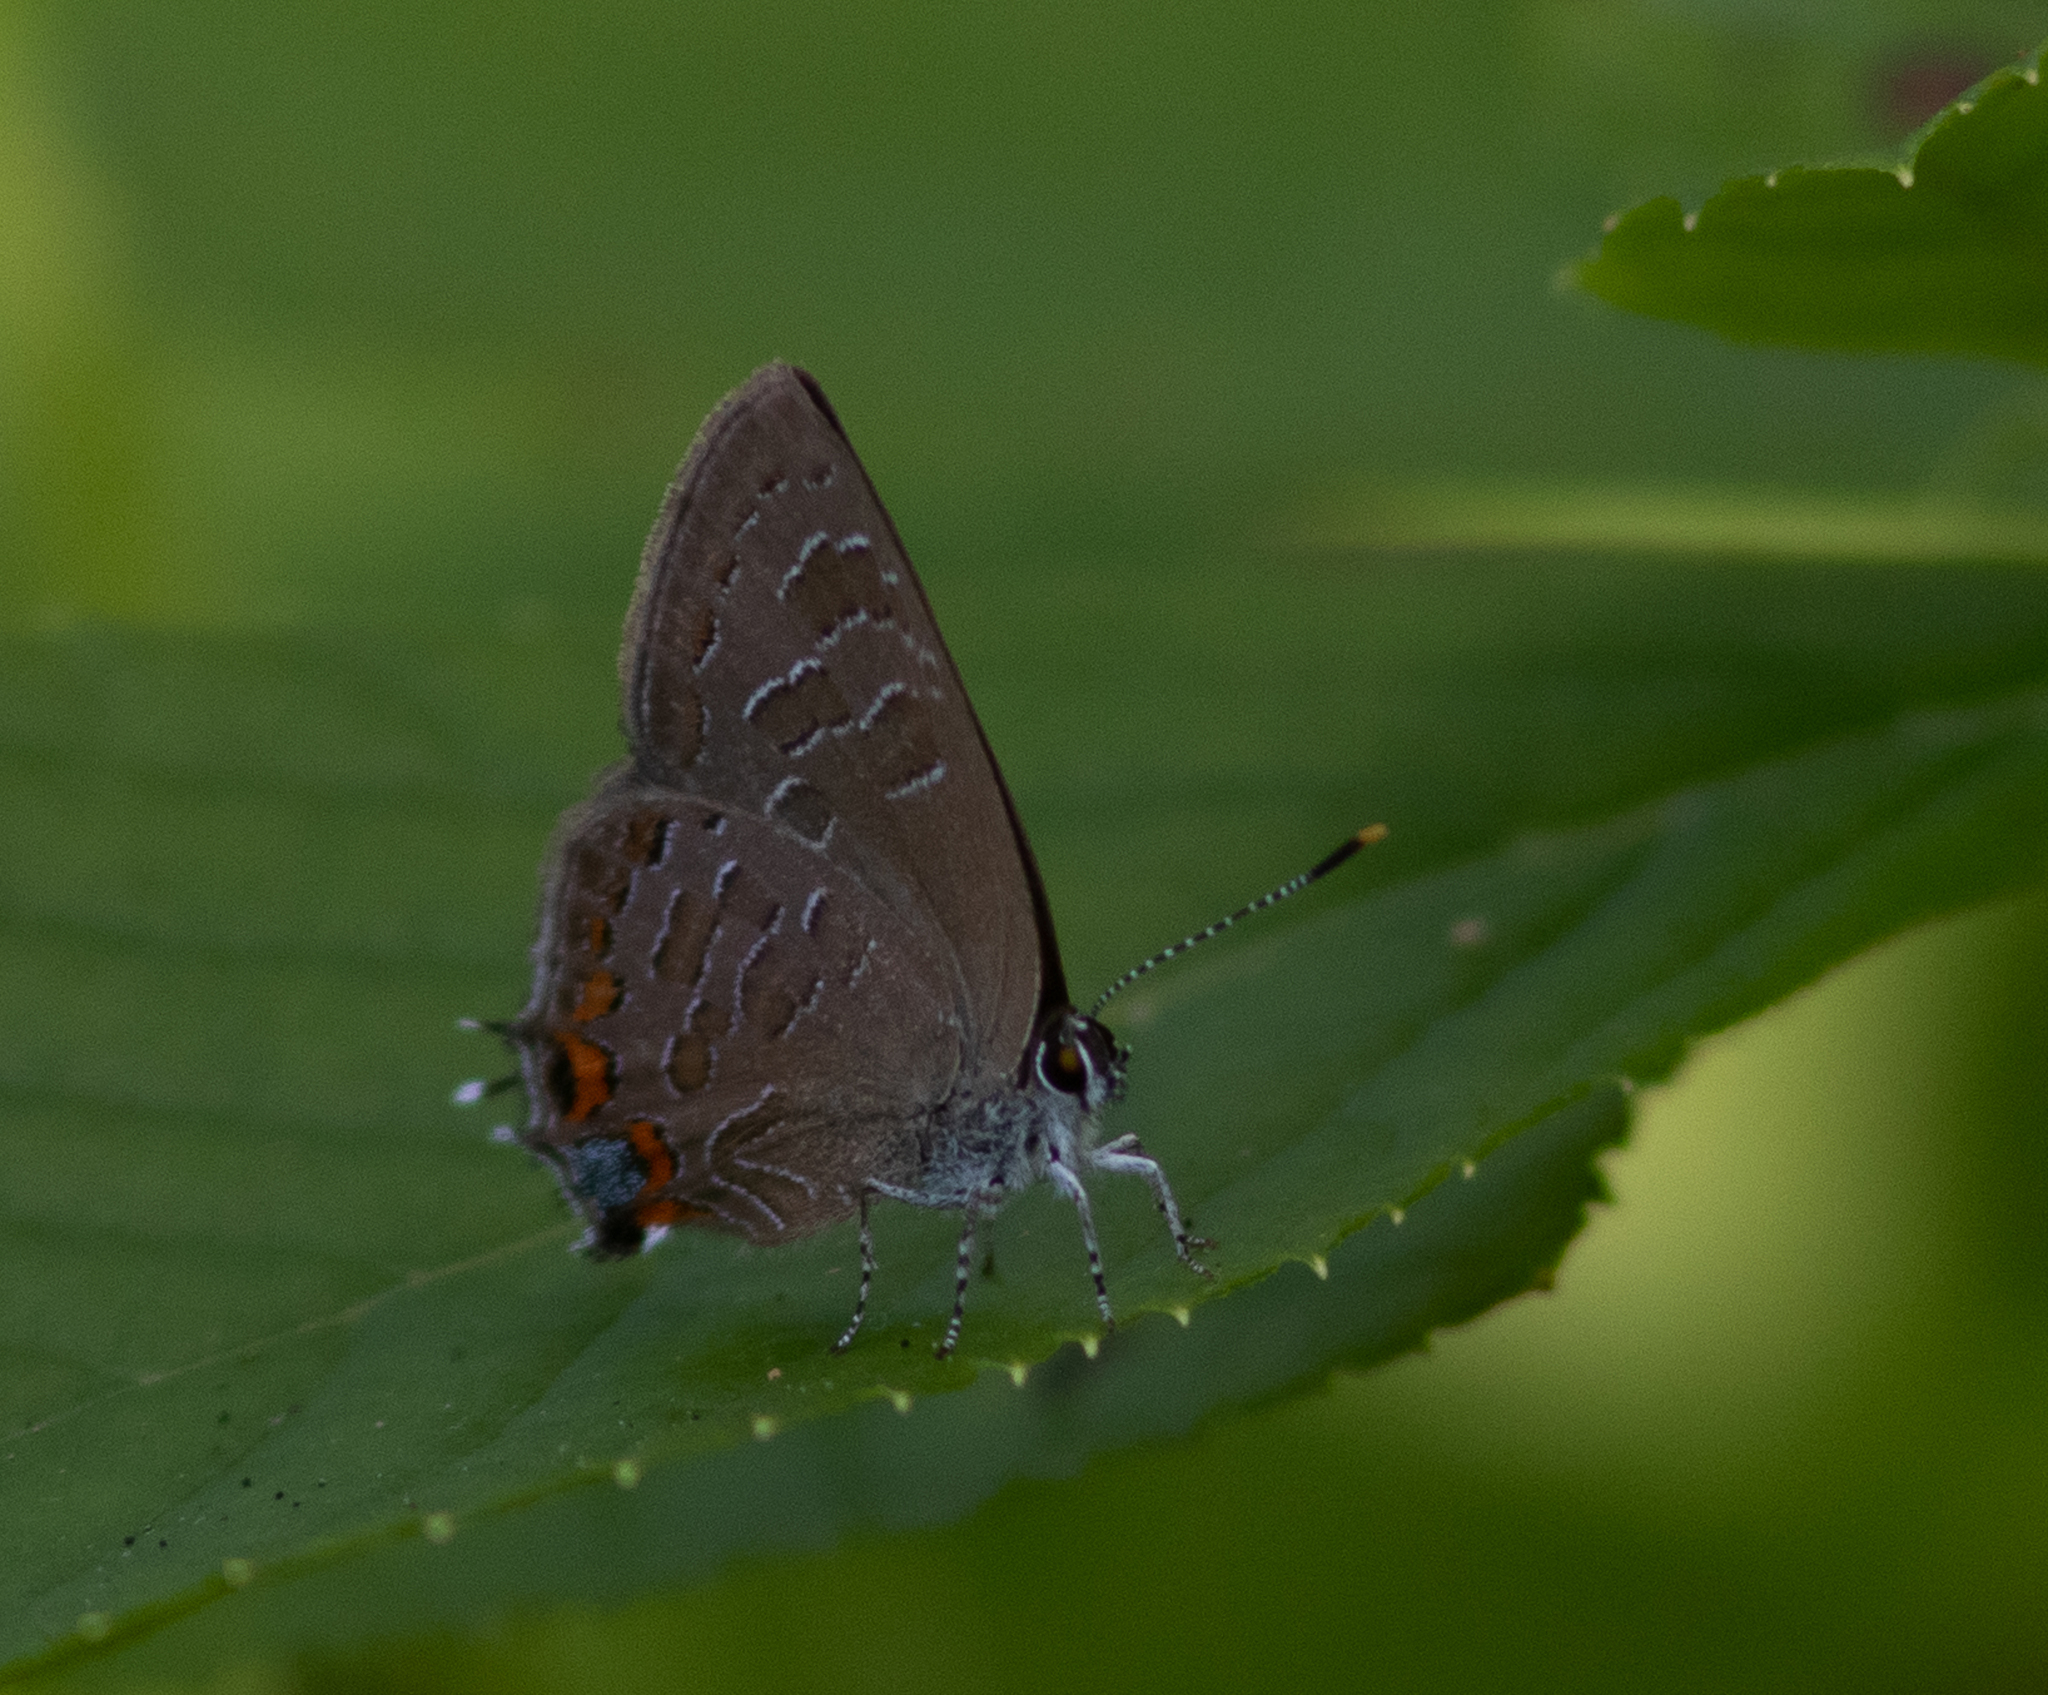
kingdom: Animalia
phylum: Arthropoda
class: Insecta
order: Lepidoptera
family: Lycaenidae
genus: Satyrium
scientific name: Satyrium liparops
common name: Striped hairstreak
